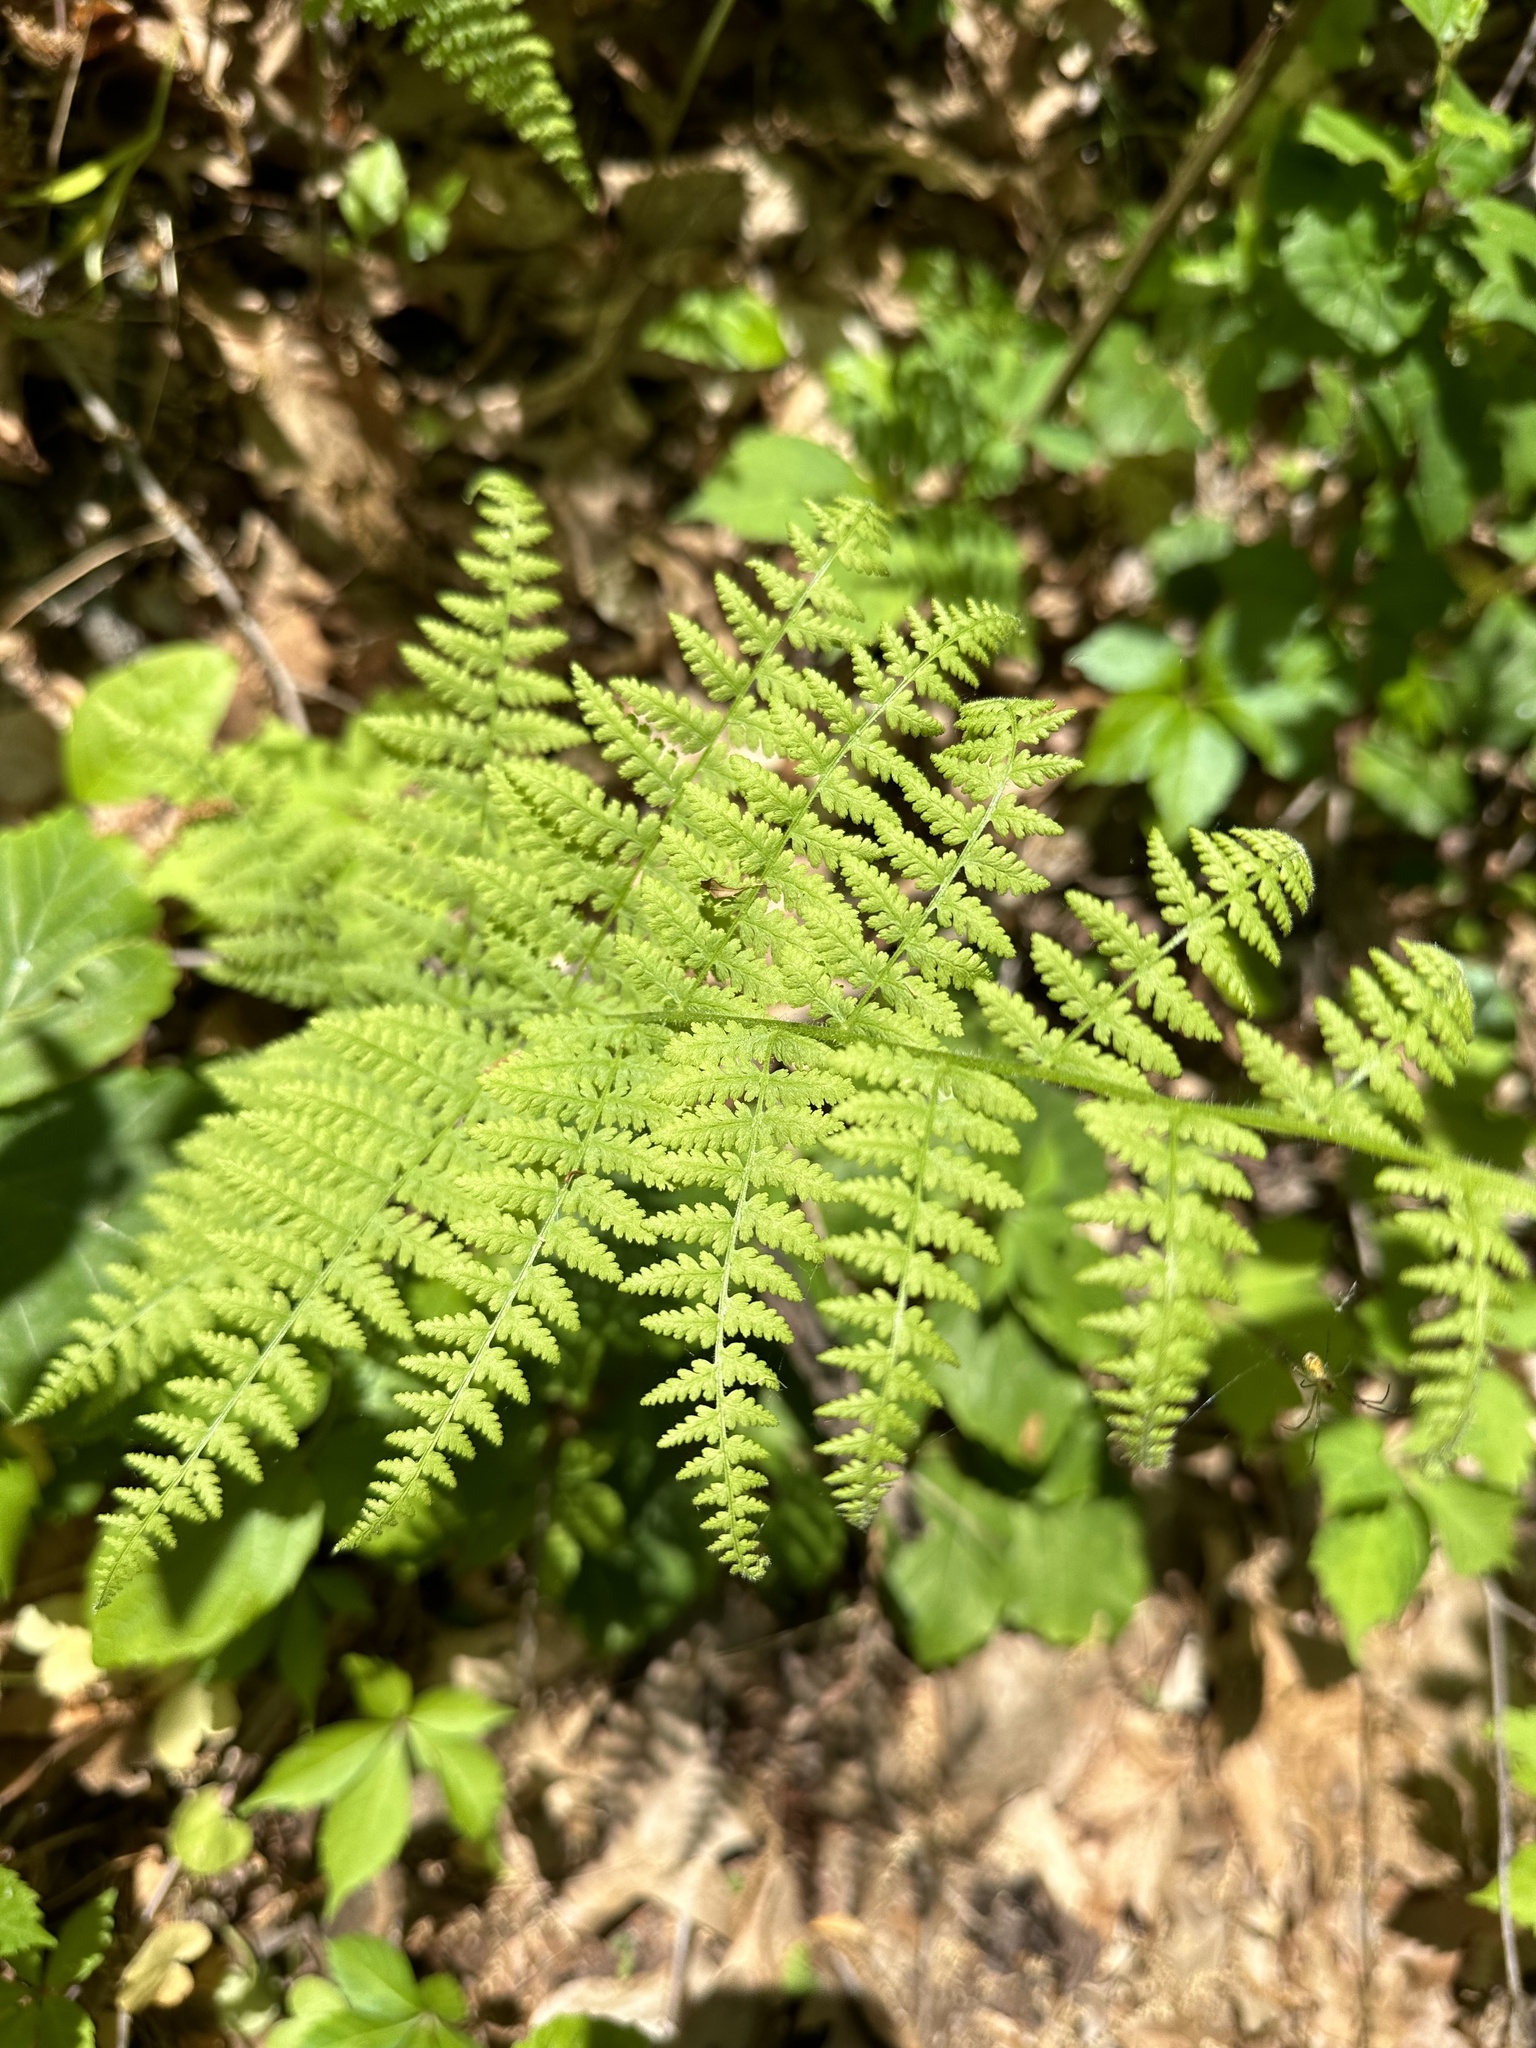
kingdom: Plantae
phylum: Tracheophyta
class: Polypodiopsida
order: Polypodiales
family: Dennstaedtiaceae
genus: Sitobolium
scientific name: Sitobolium punctilobum
